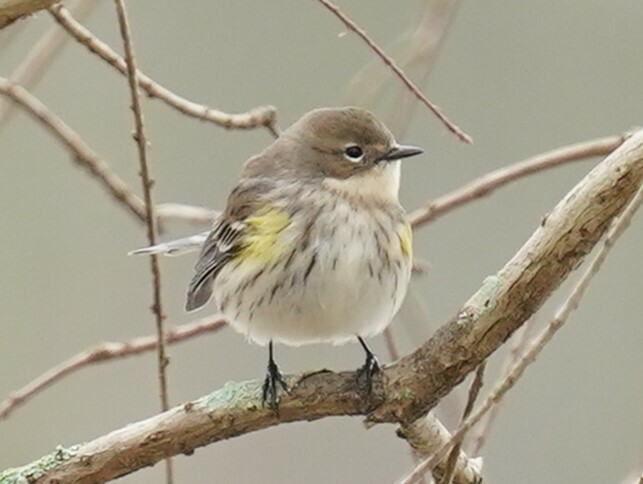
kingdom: Animalia
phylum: Chordata
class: Aves
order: Passeriformes
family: Parulidae
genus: Setophaga
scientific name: Setophaga coronata
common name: Myrtle warbler
